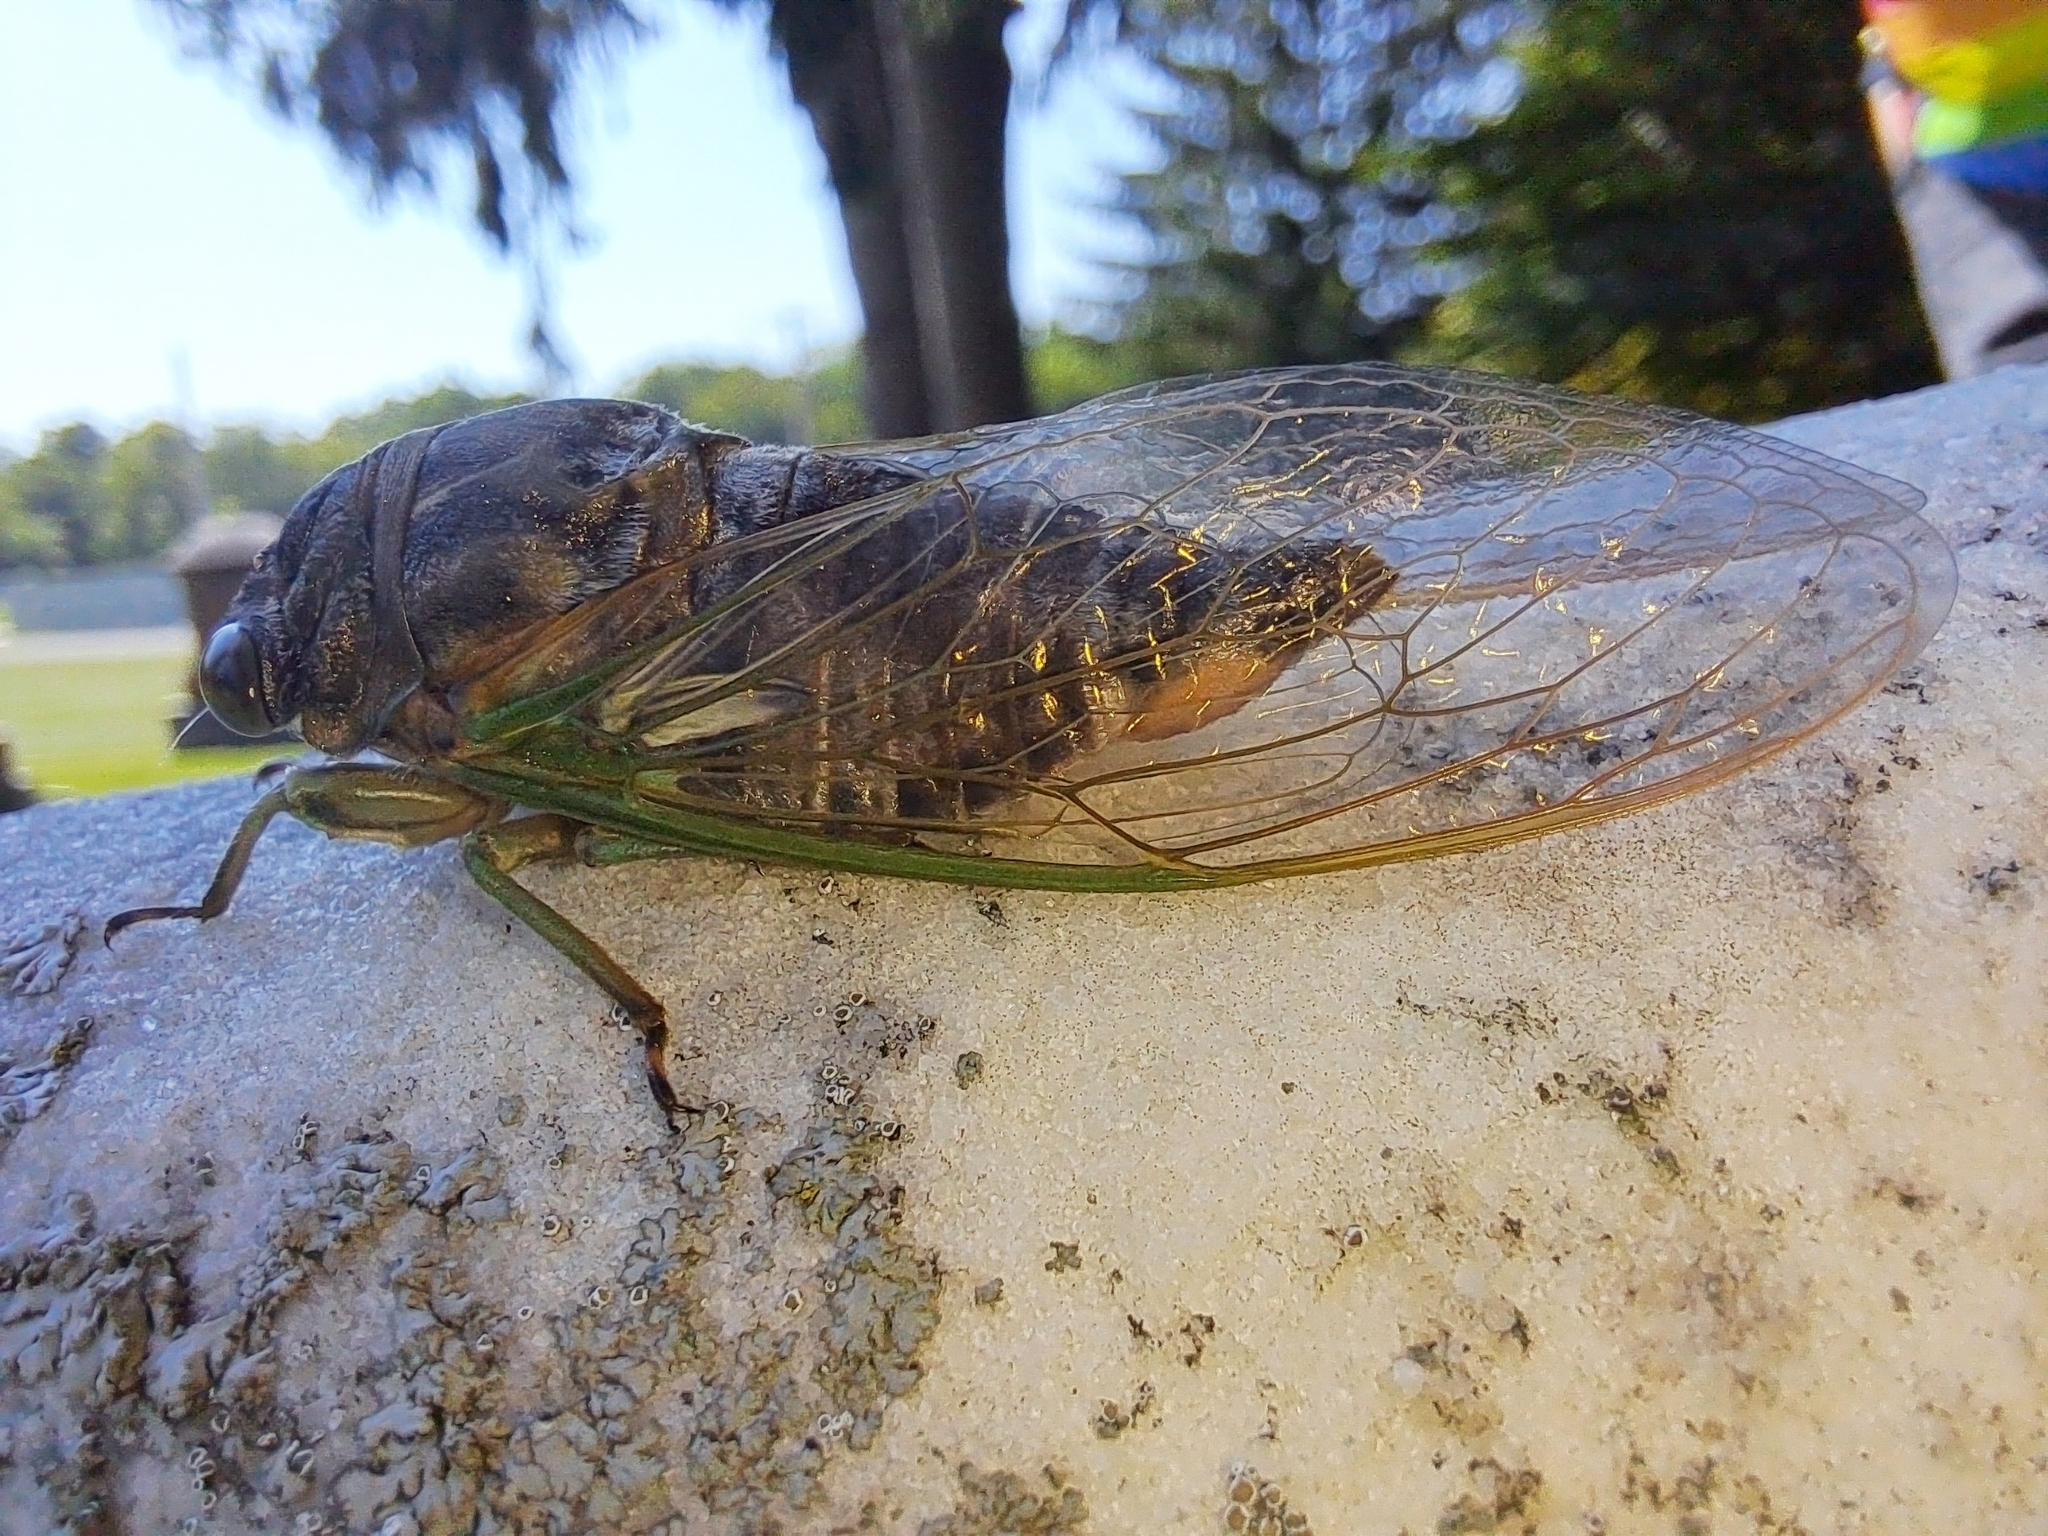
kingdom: Animalia
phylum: Arthropoda
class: Insecta
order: Hemiptera
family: Cicadidae
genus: Neotibicen
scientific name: Neotibicen canicularis
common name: God-day cicada
